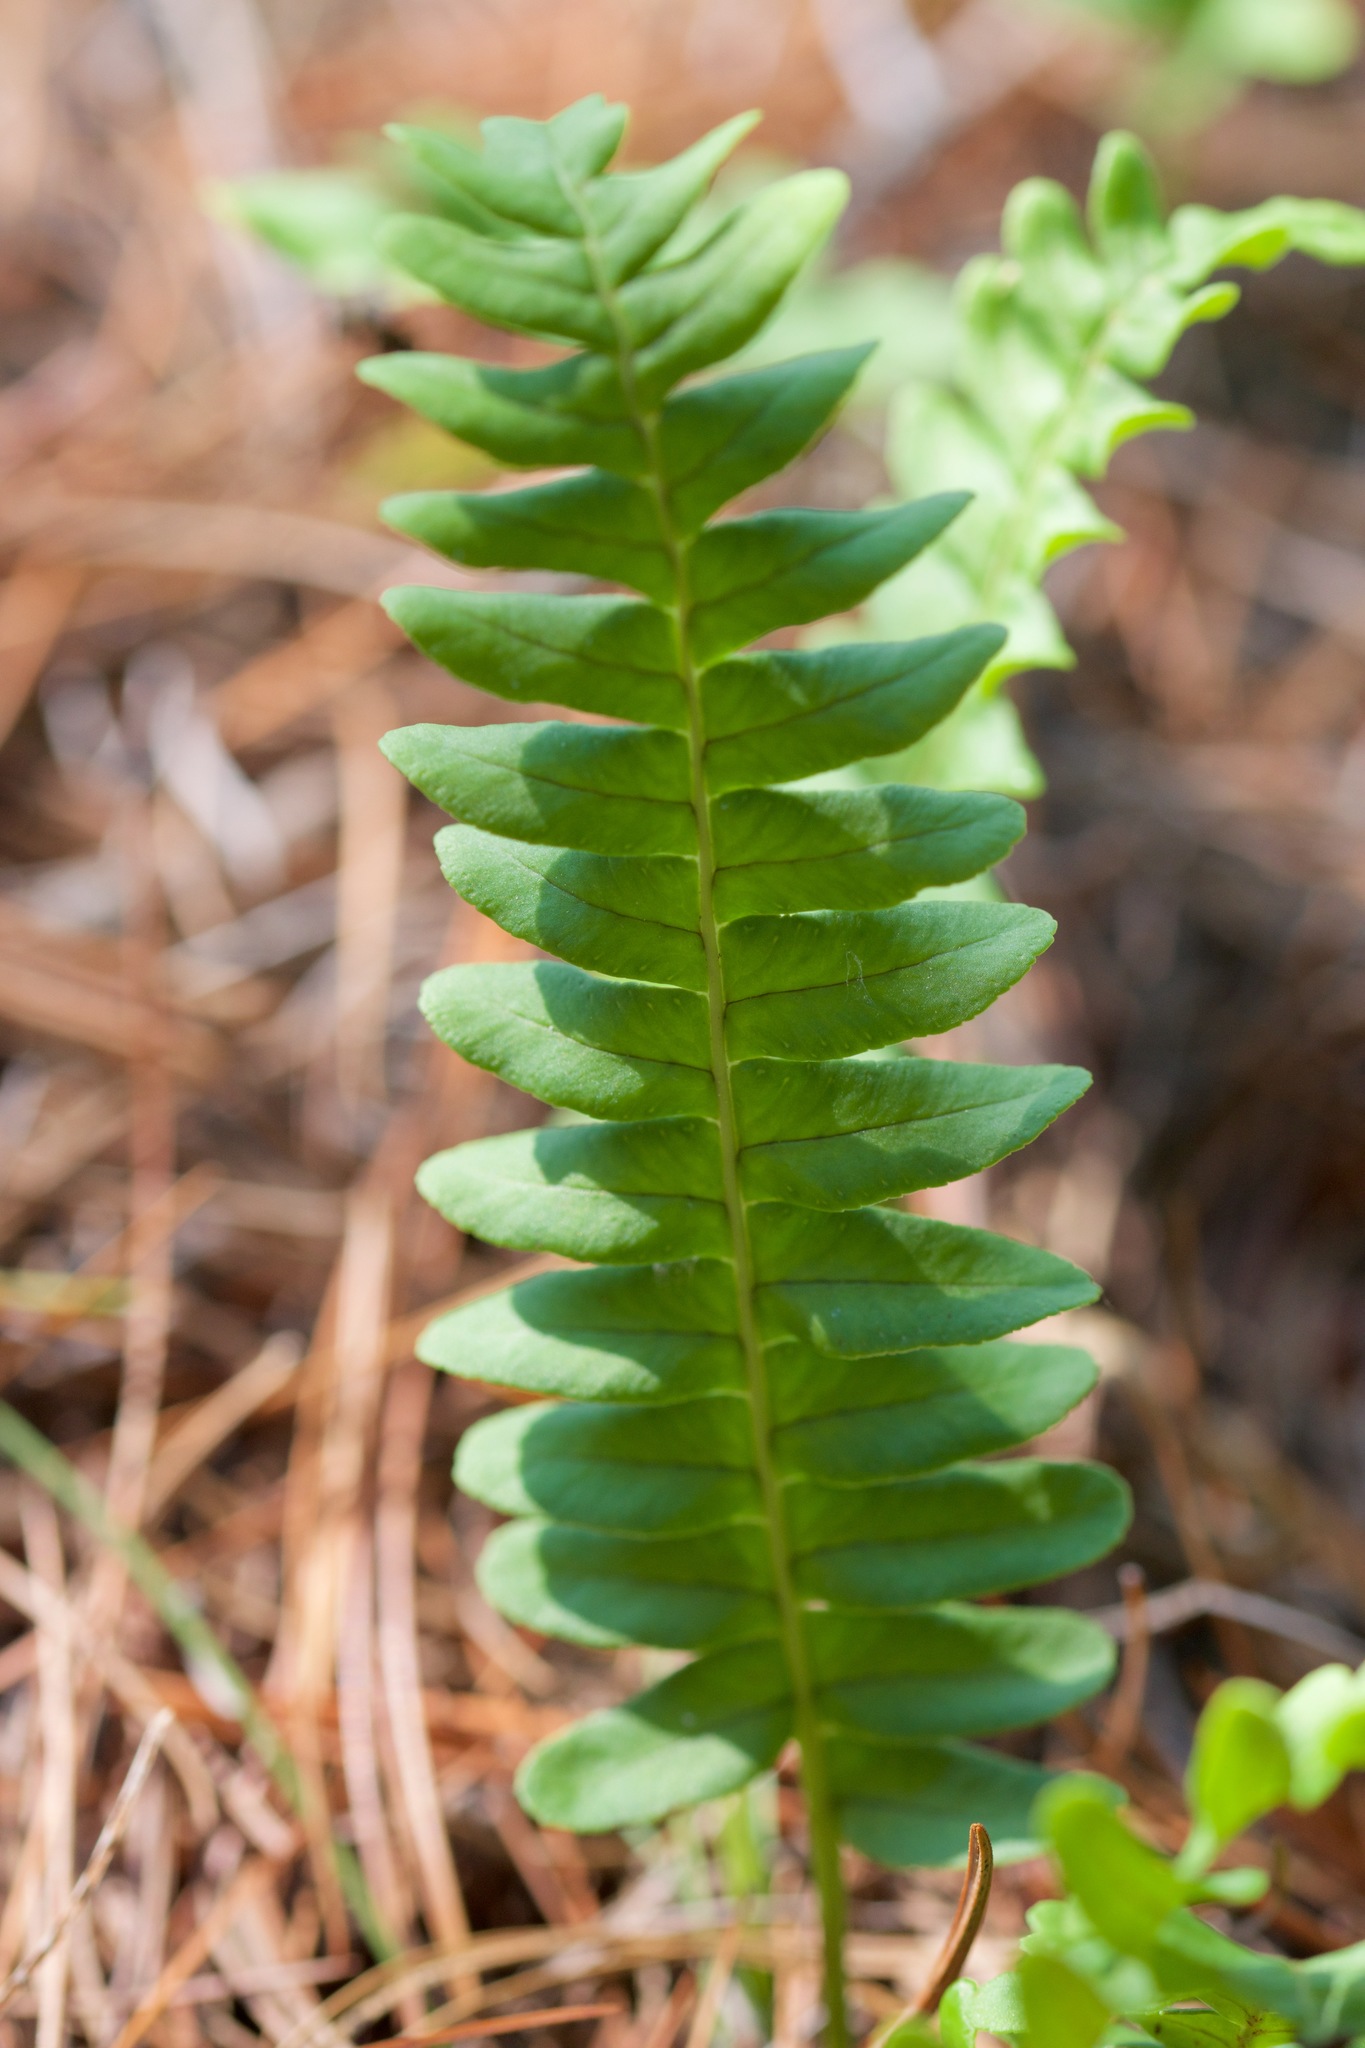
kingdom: Plantae
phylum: Tracheophyta
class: Polypodiopsida
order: Polypodiales
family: Polypodiaceae
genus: Polypodium
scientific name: Polypodium virginianum
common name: American wall fern
